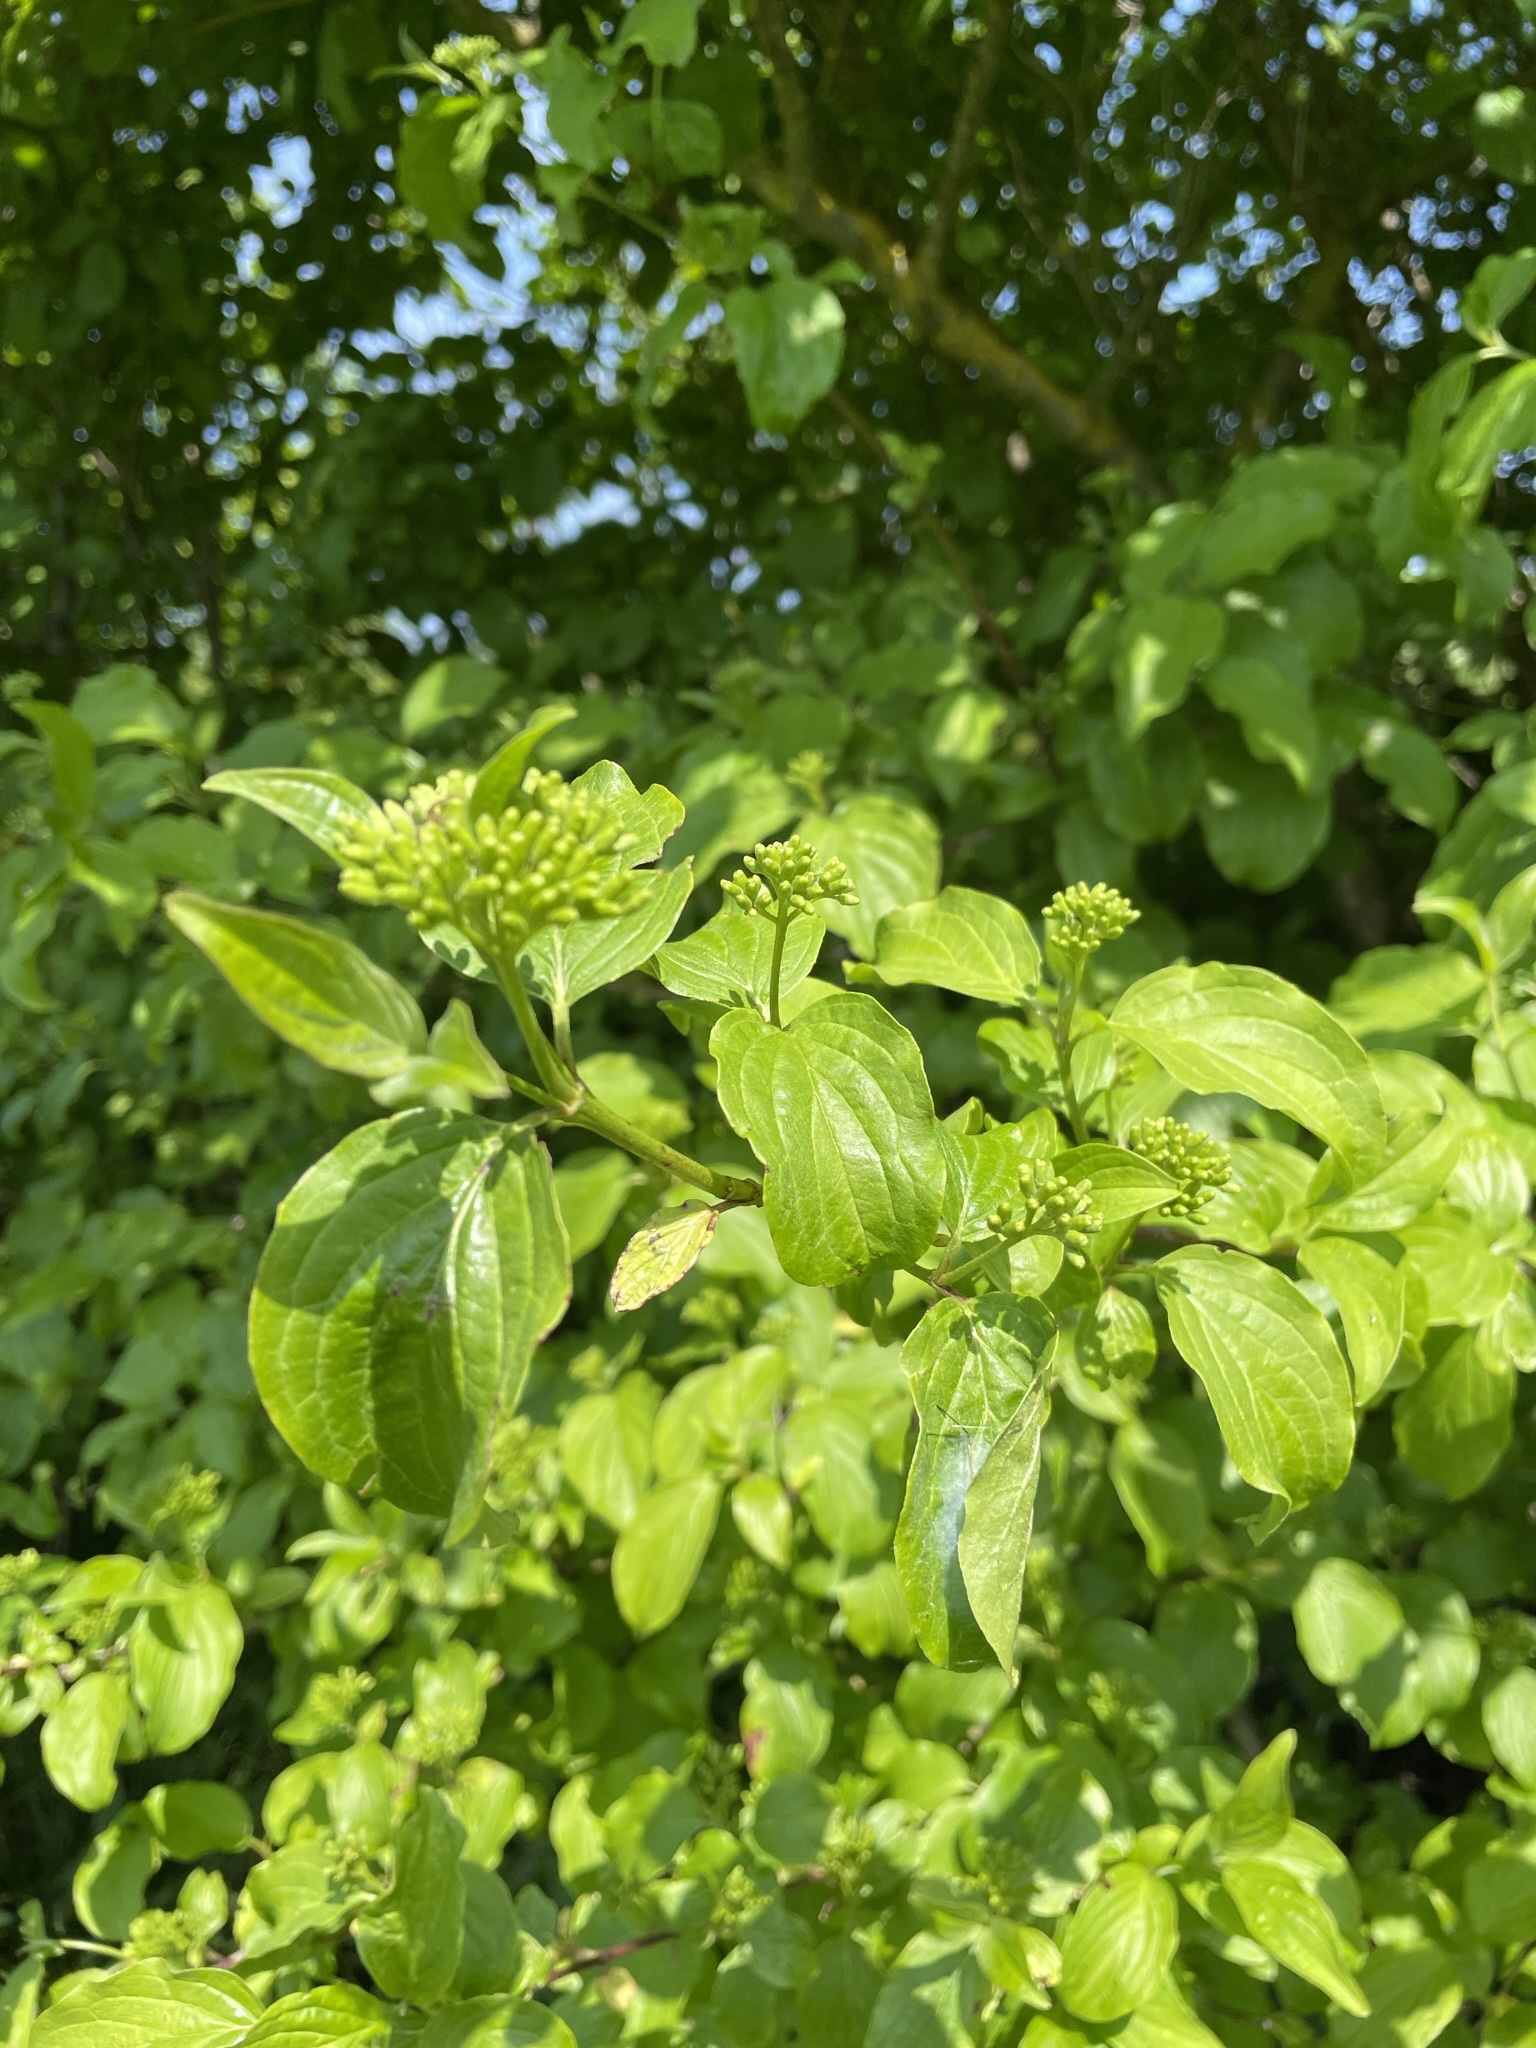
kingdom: Plantae
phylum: Tracheophyta
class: Magnoliopsida
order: Cornales
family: Cornaceae
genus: Cornus
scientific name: Cornus sanguinea
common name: Dogwood
